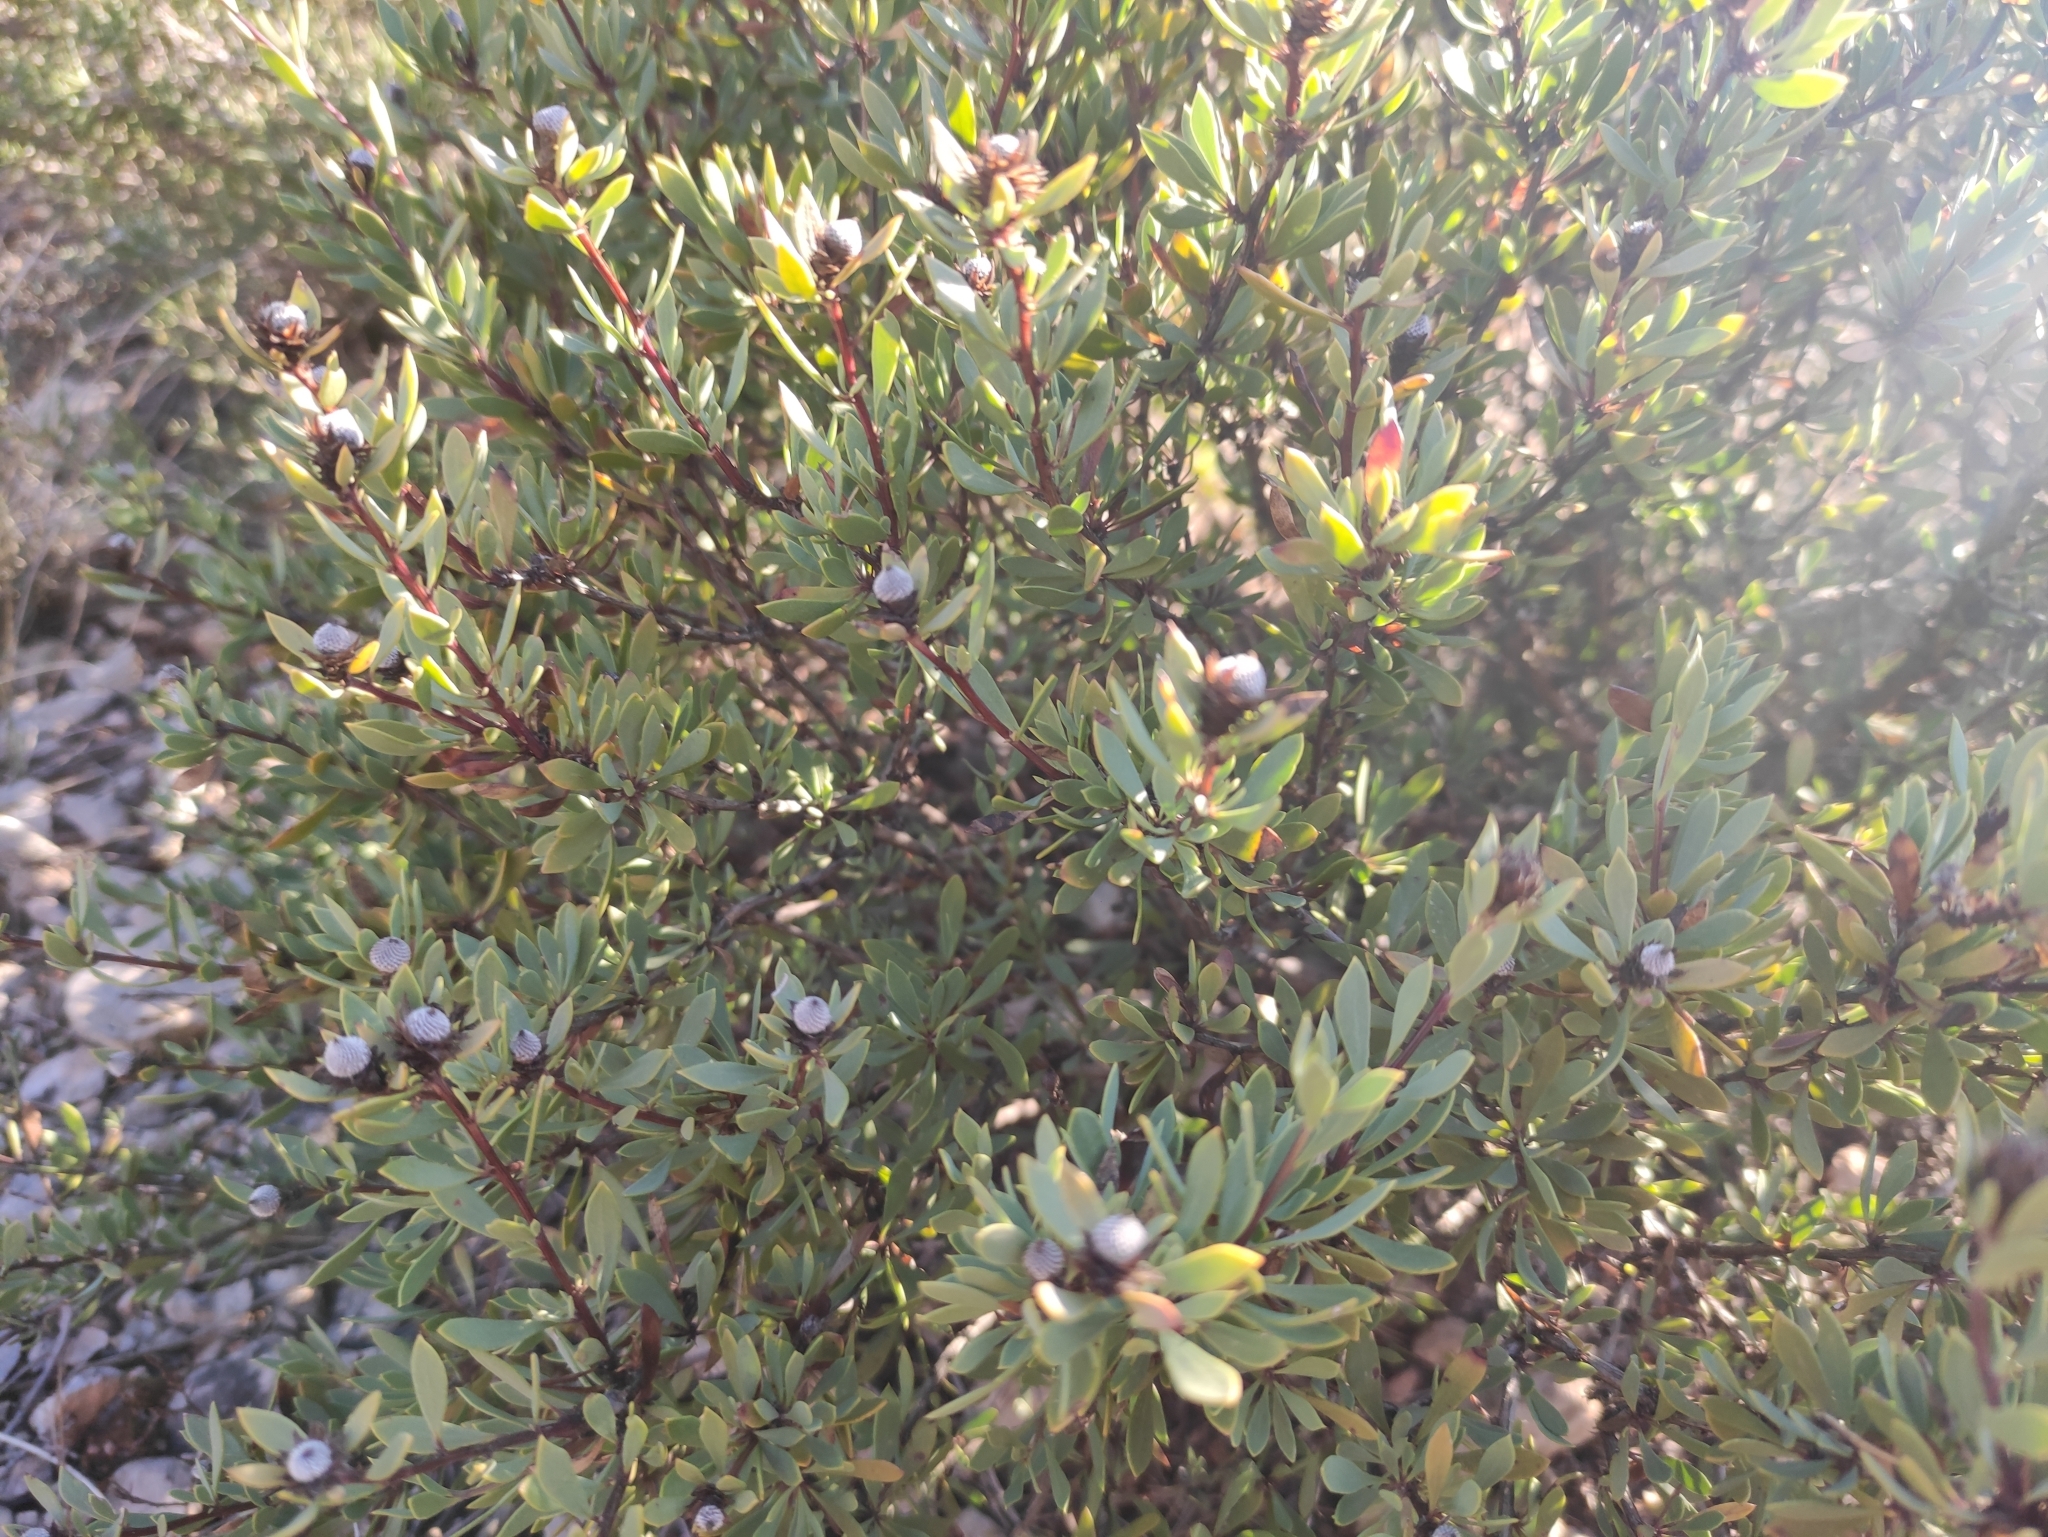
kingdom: Plantae
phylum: Tracheophyta
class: Magnoliopsida
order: Lamiales
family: Plantaginaceae
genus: Globularia
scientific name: Globularia alypum
